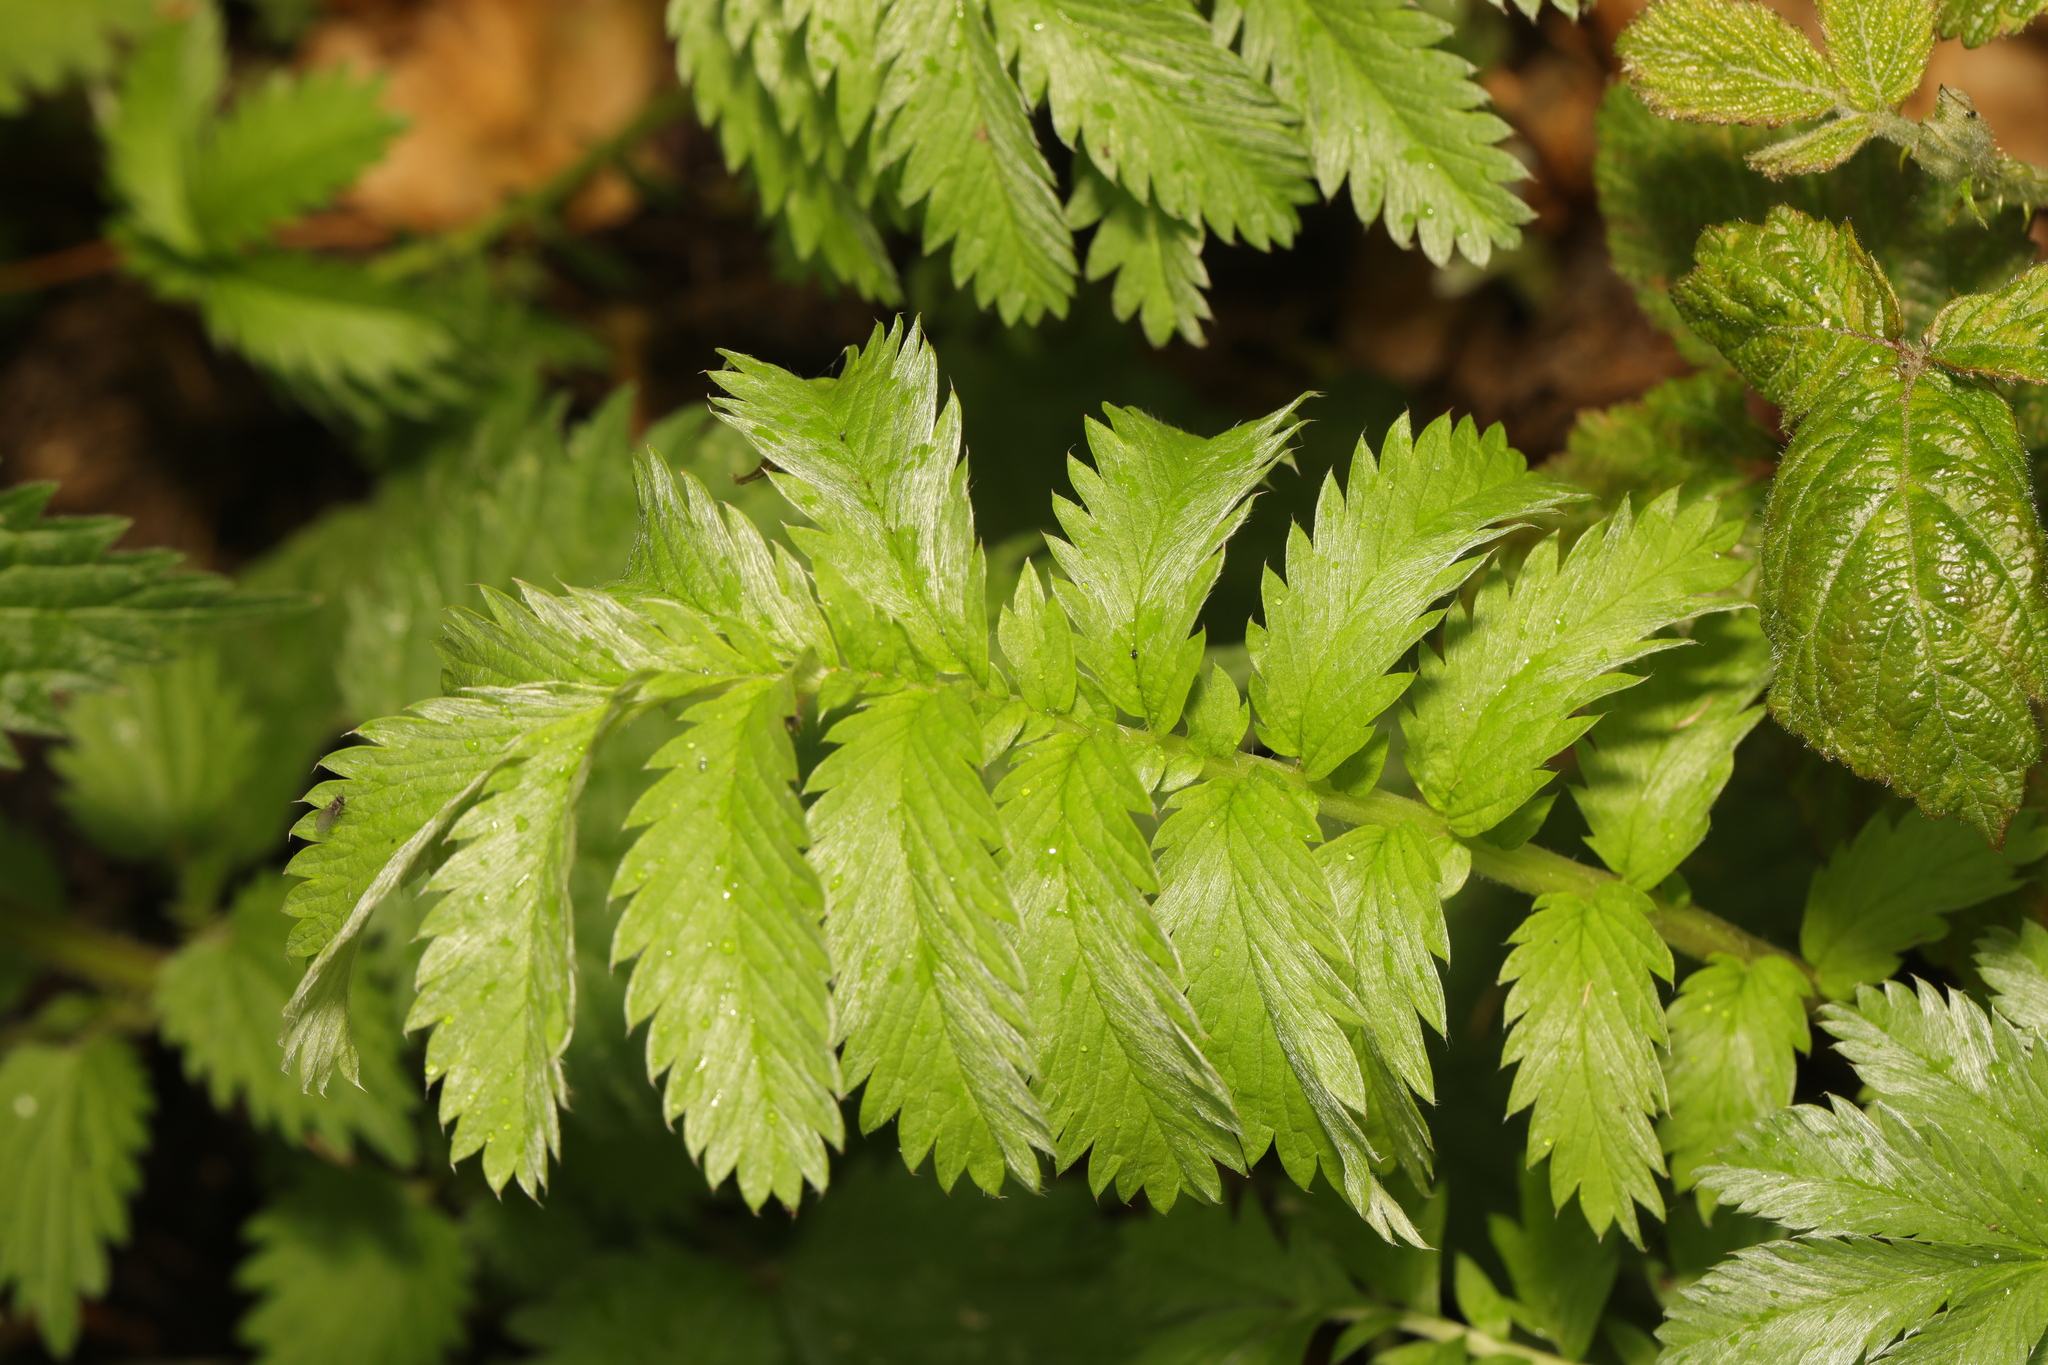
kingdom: Plantae
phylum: Tracheophyta
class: Magnoliopsida
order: Rosales
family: Rosaceae
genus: Argentina
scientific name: Argentina anserina
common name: Common silverweed
